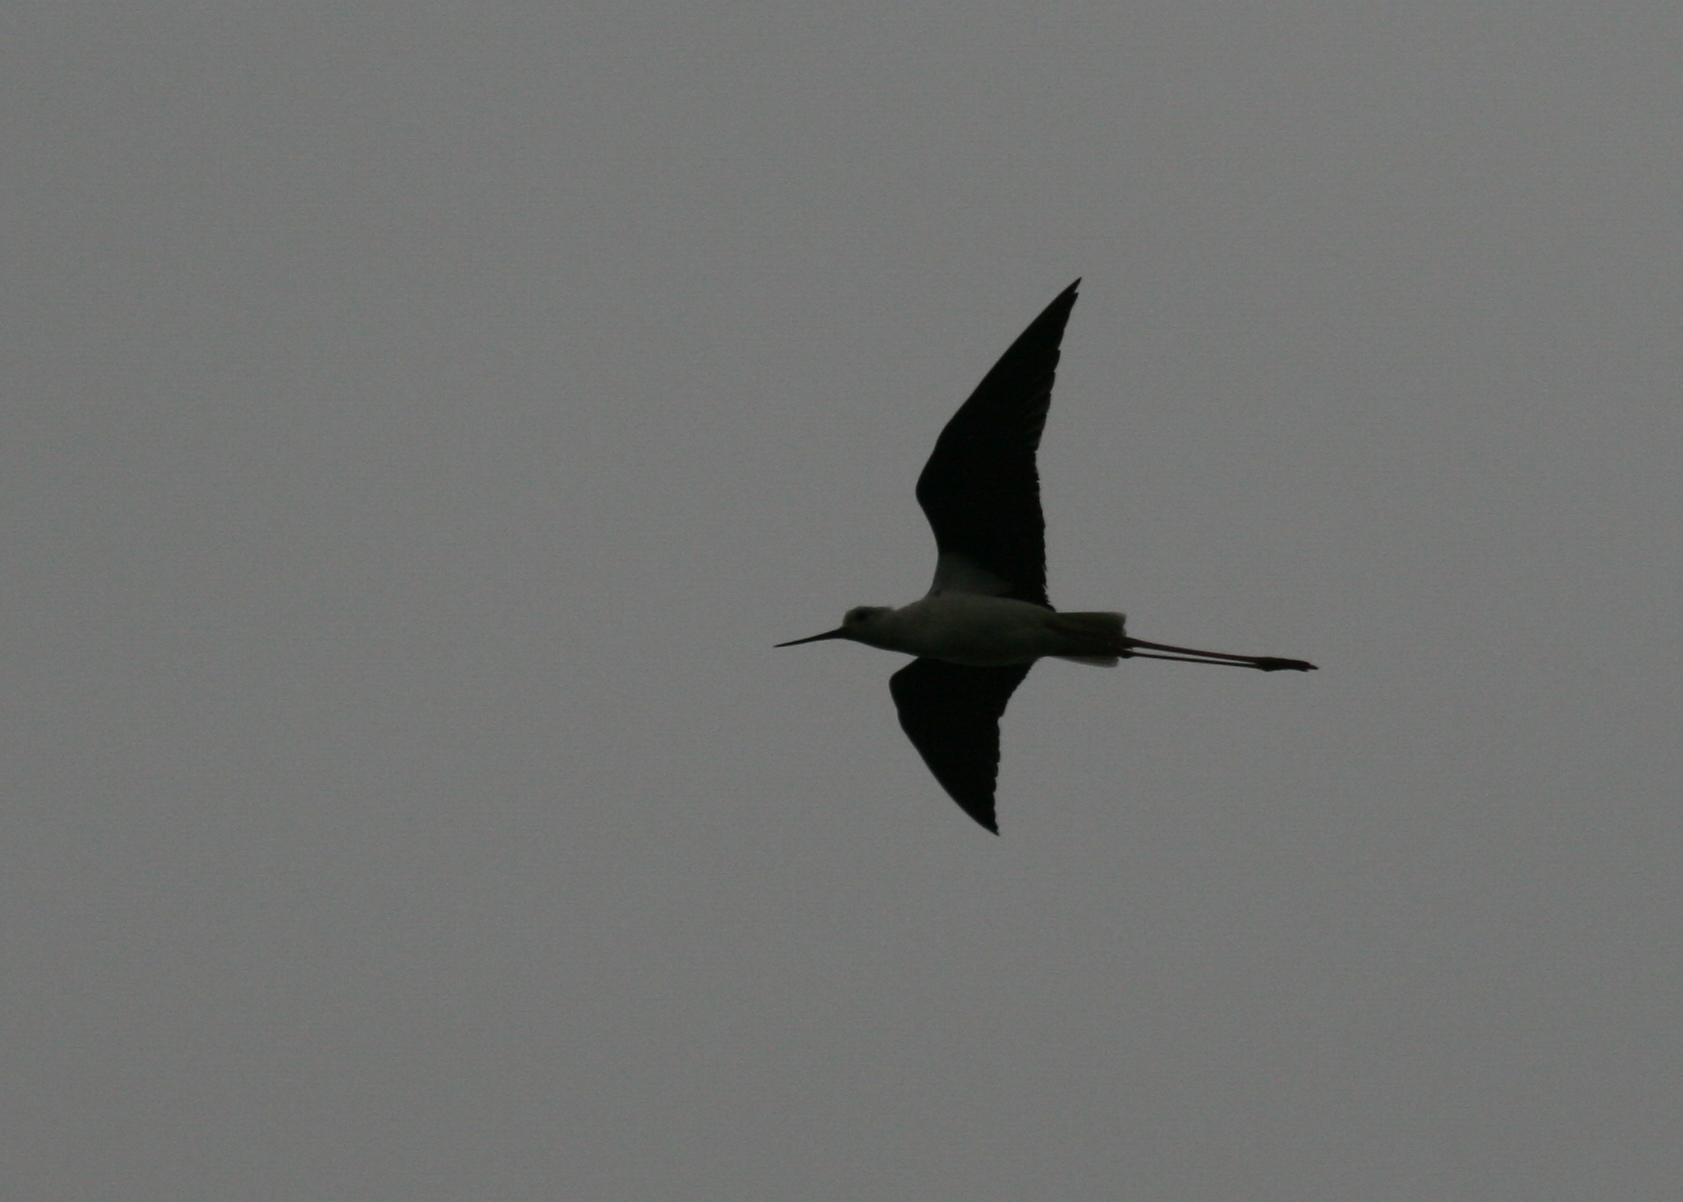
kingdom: Animalia
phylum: Chordata
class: Aves
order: Charadriiformes
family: Recurvirostridae
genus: Himantopus
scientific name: Himantopus himantopus
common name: Black-winged stilt
